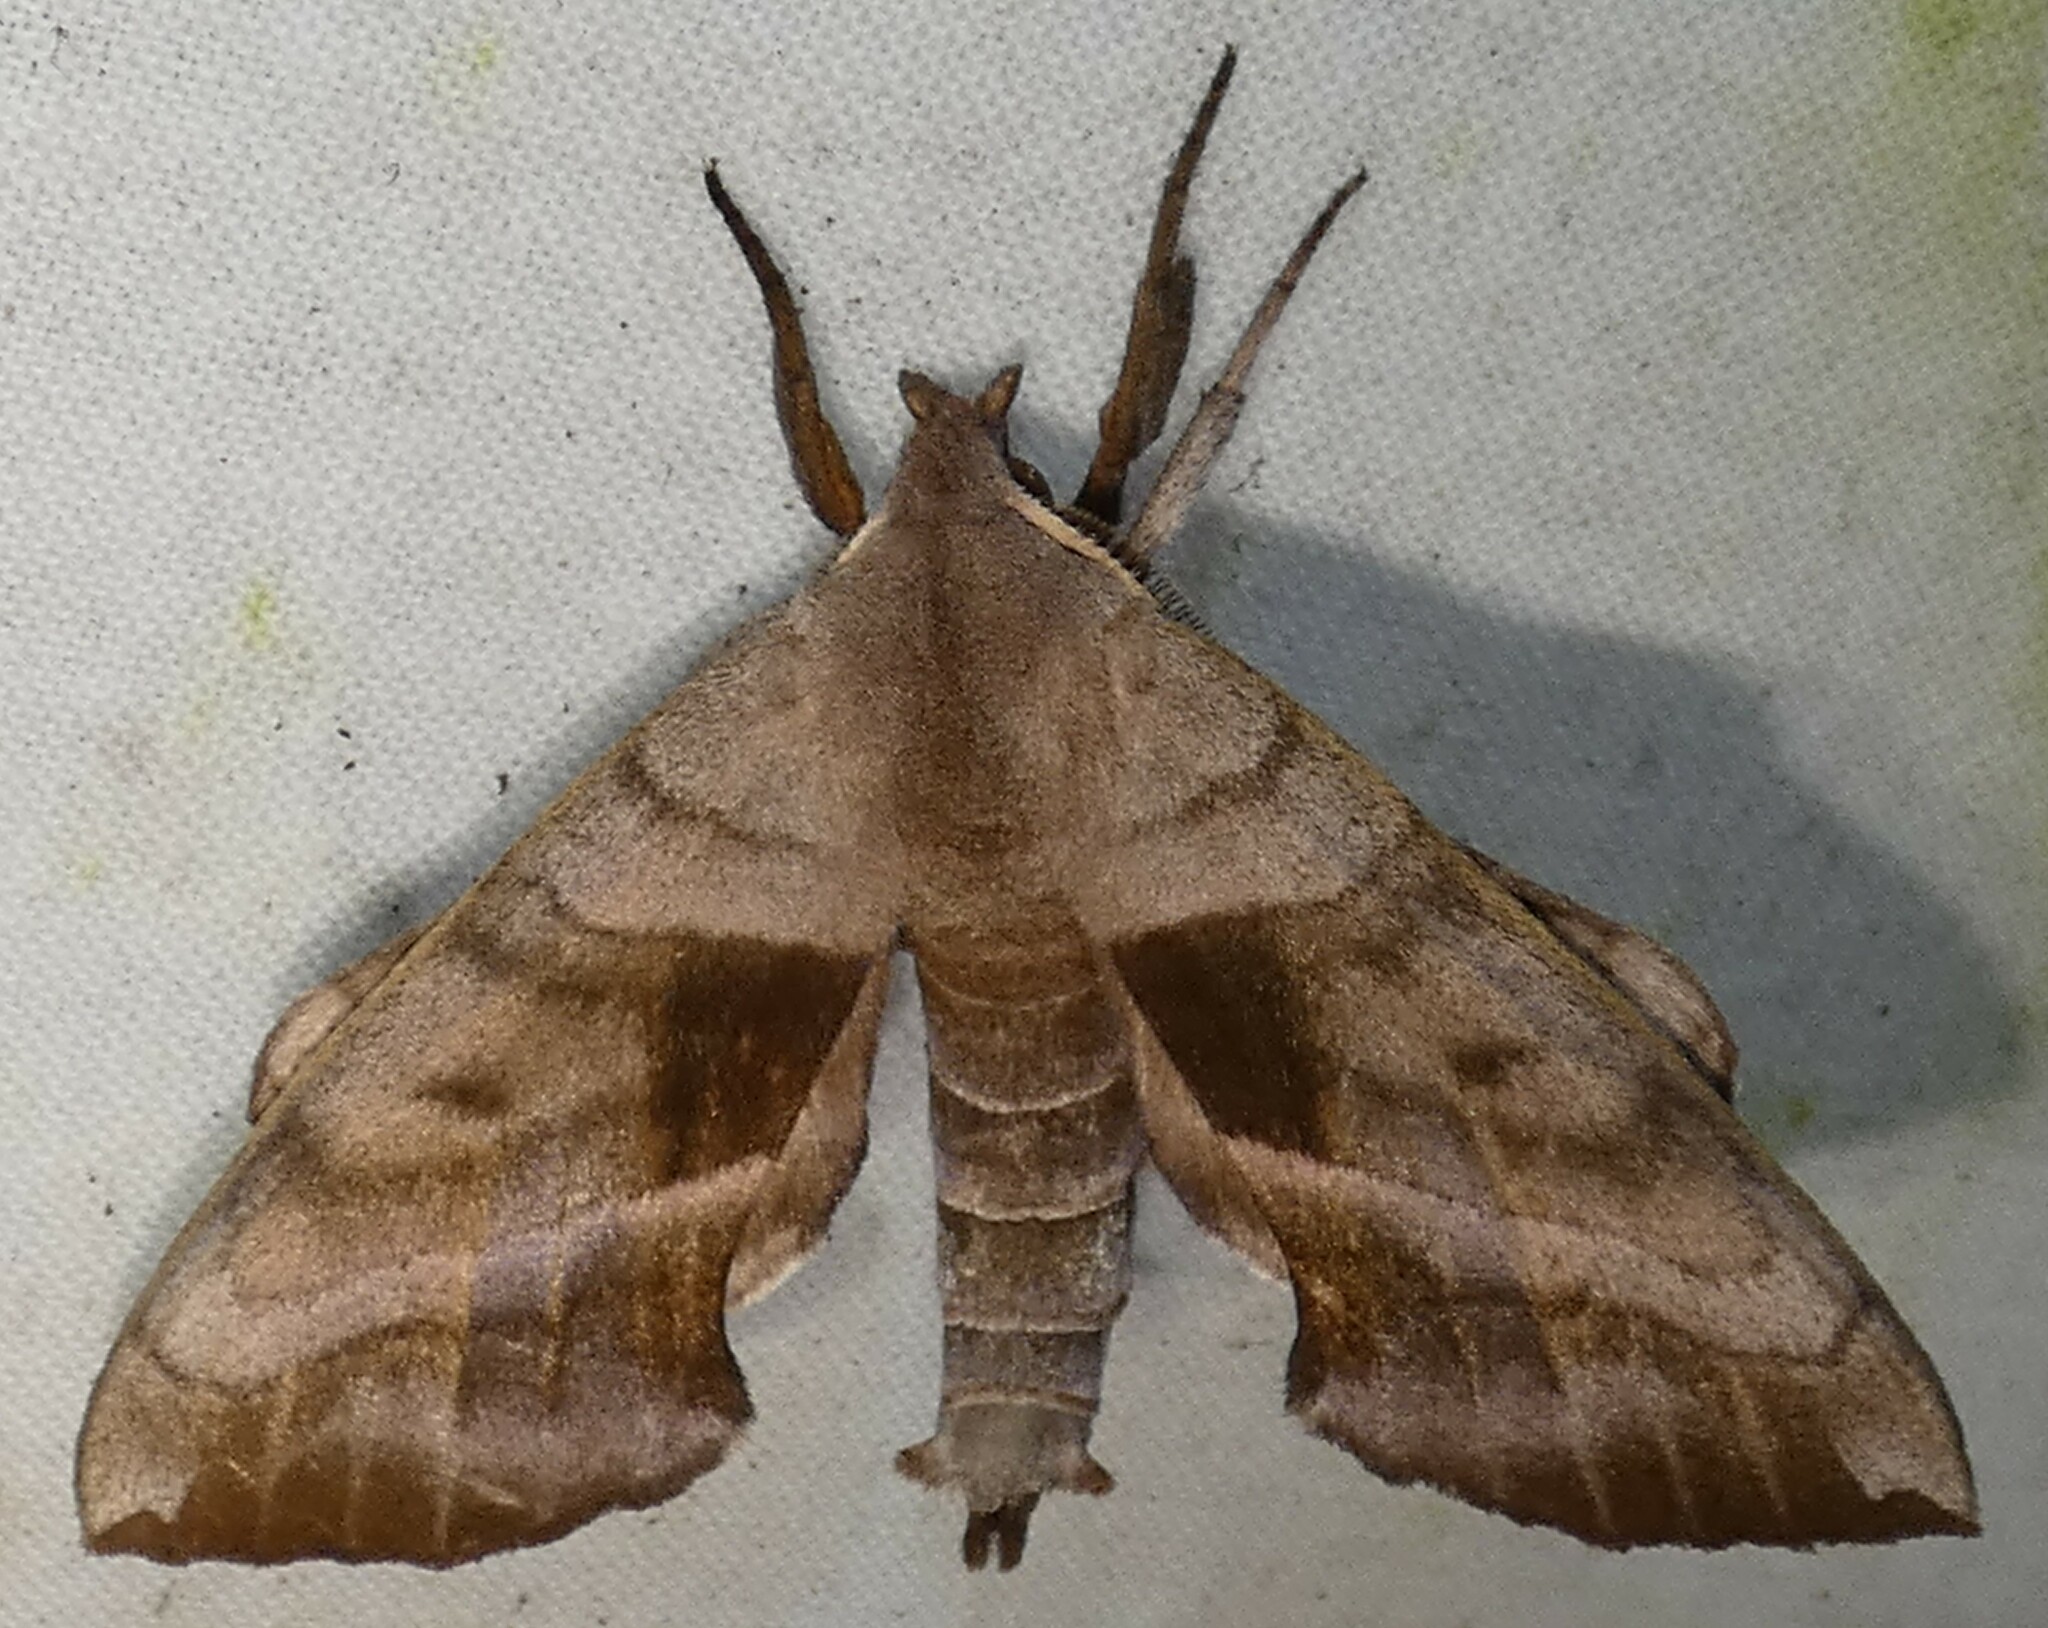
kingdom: Animalia
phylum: Arthropoda
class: Insecta
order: Lepidoptera
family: Sphingidae
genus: Amorpha
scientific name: Amorpha juglandis
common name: Walnut sphinx
